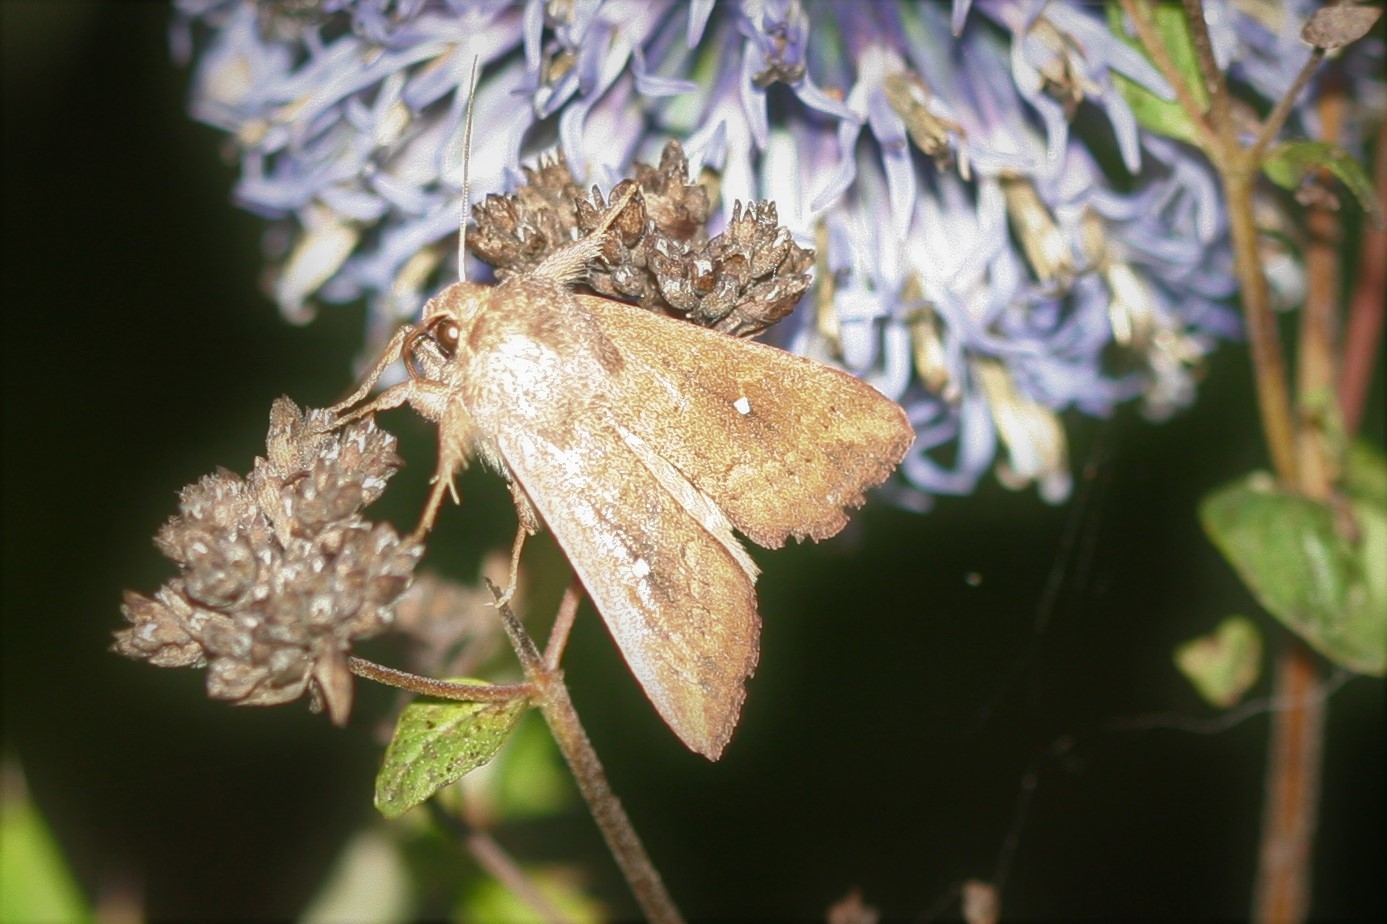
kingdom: Animalia
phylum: Arthropoda
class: Insecta
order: Lepidoptera
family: Noctuidae
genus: Mythimna
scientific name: Mythimna albipuncta
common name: White-point
